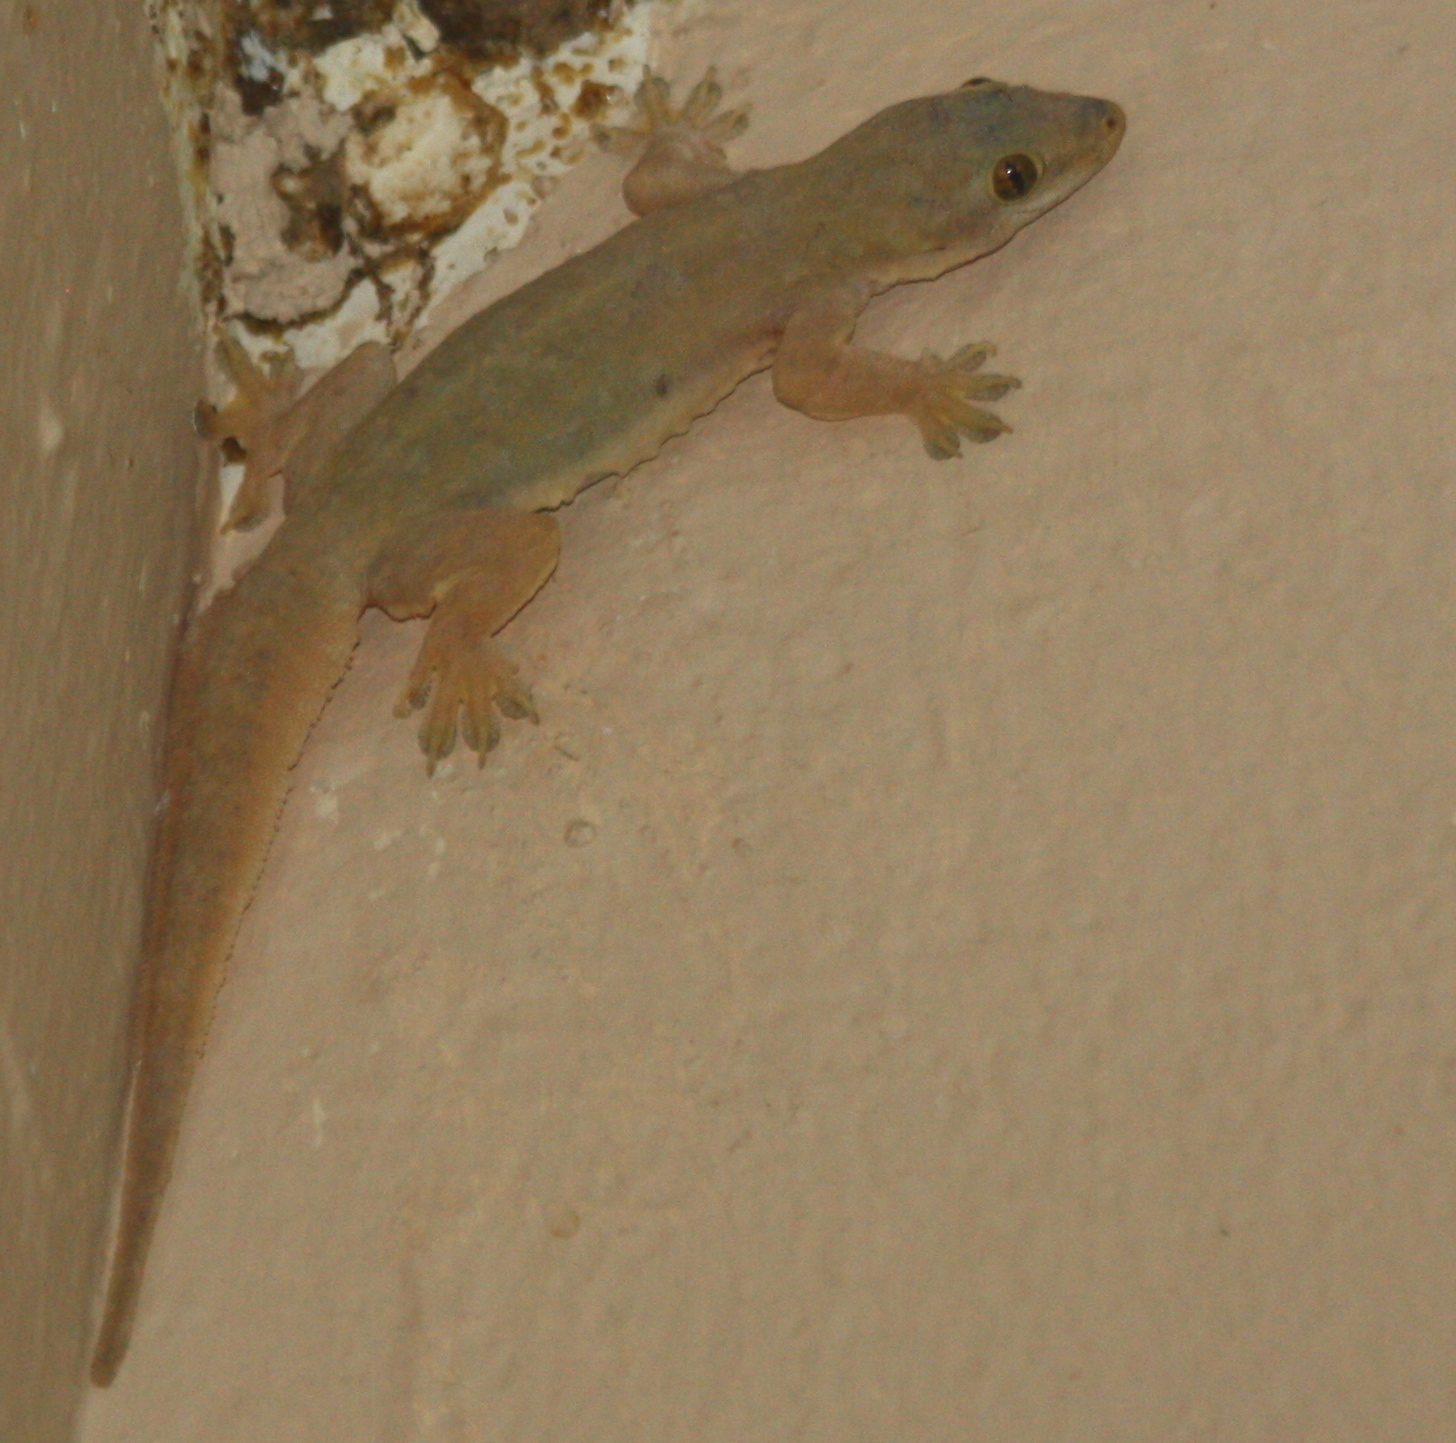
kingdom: Animalia
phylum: Chordata
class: Squamata
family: Gekkonidae
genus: Hemidactylus
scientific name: Hemidactylus platyurus
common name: Flat-tailed house gecko
